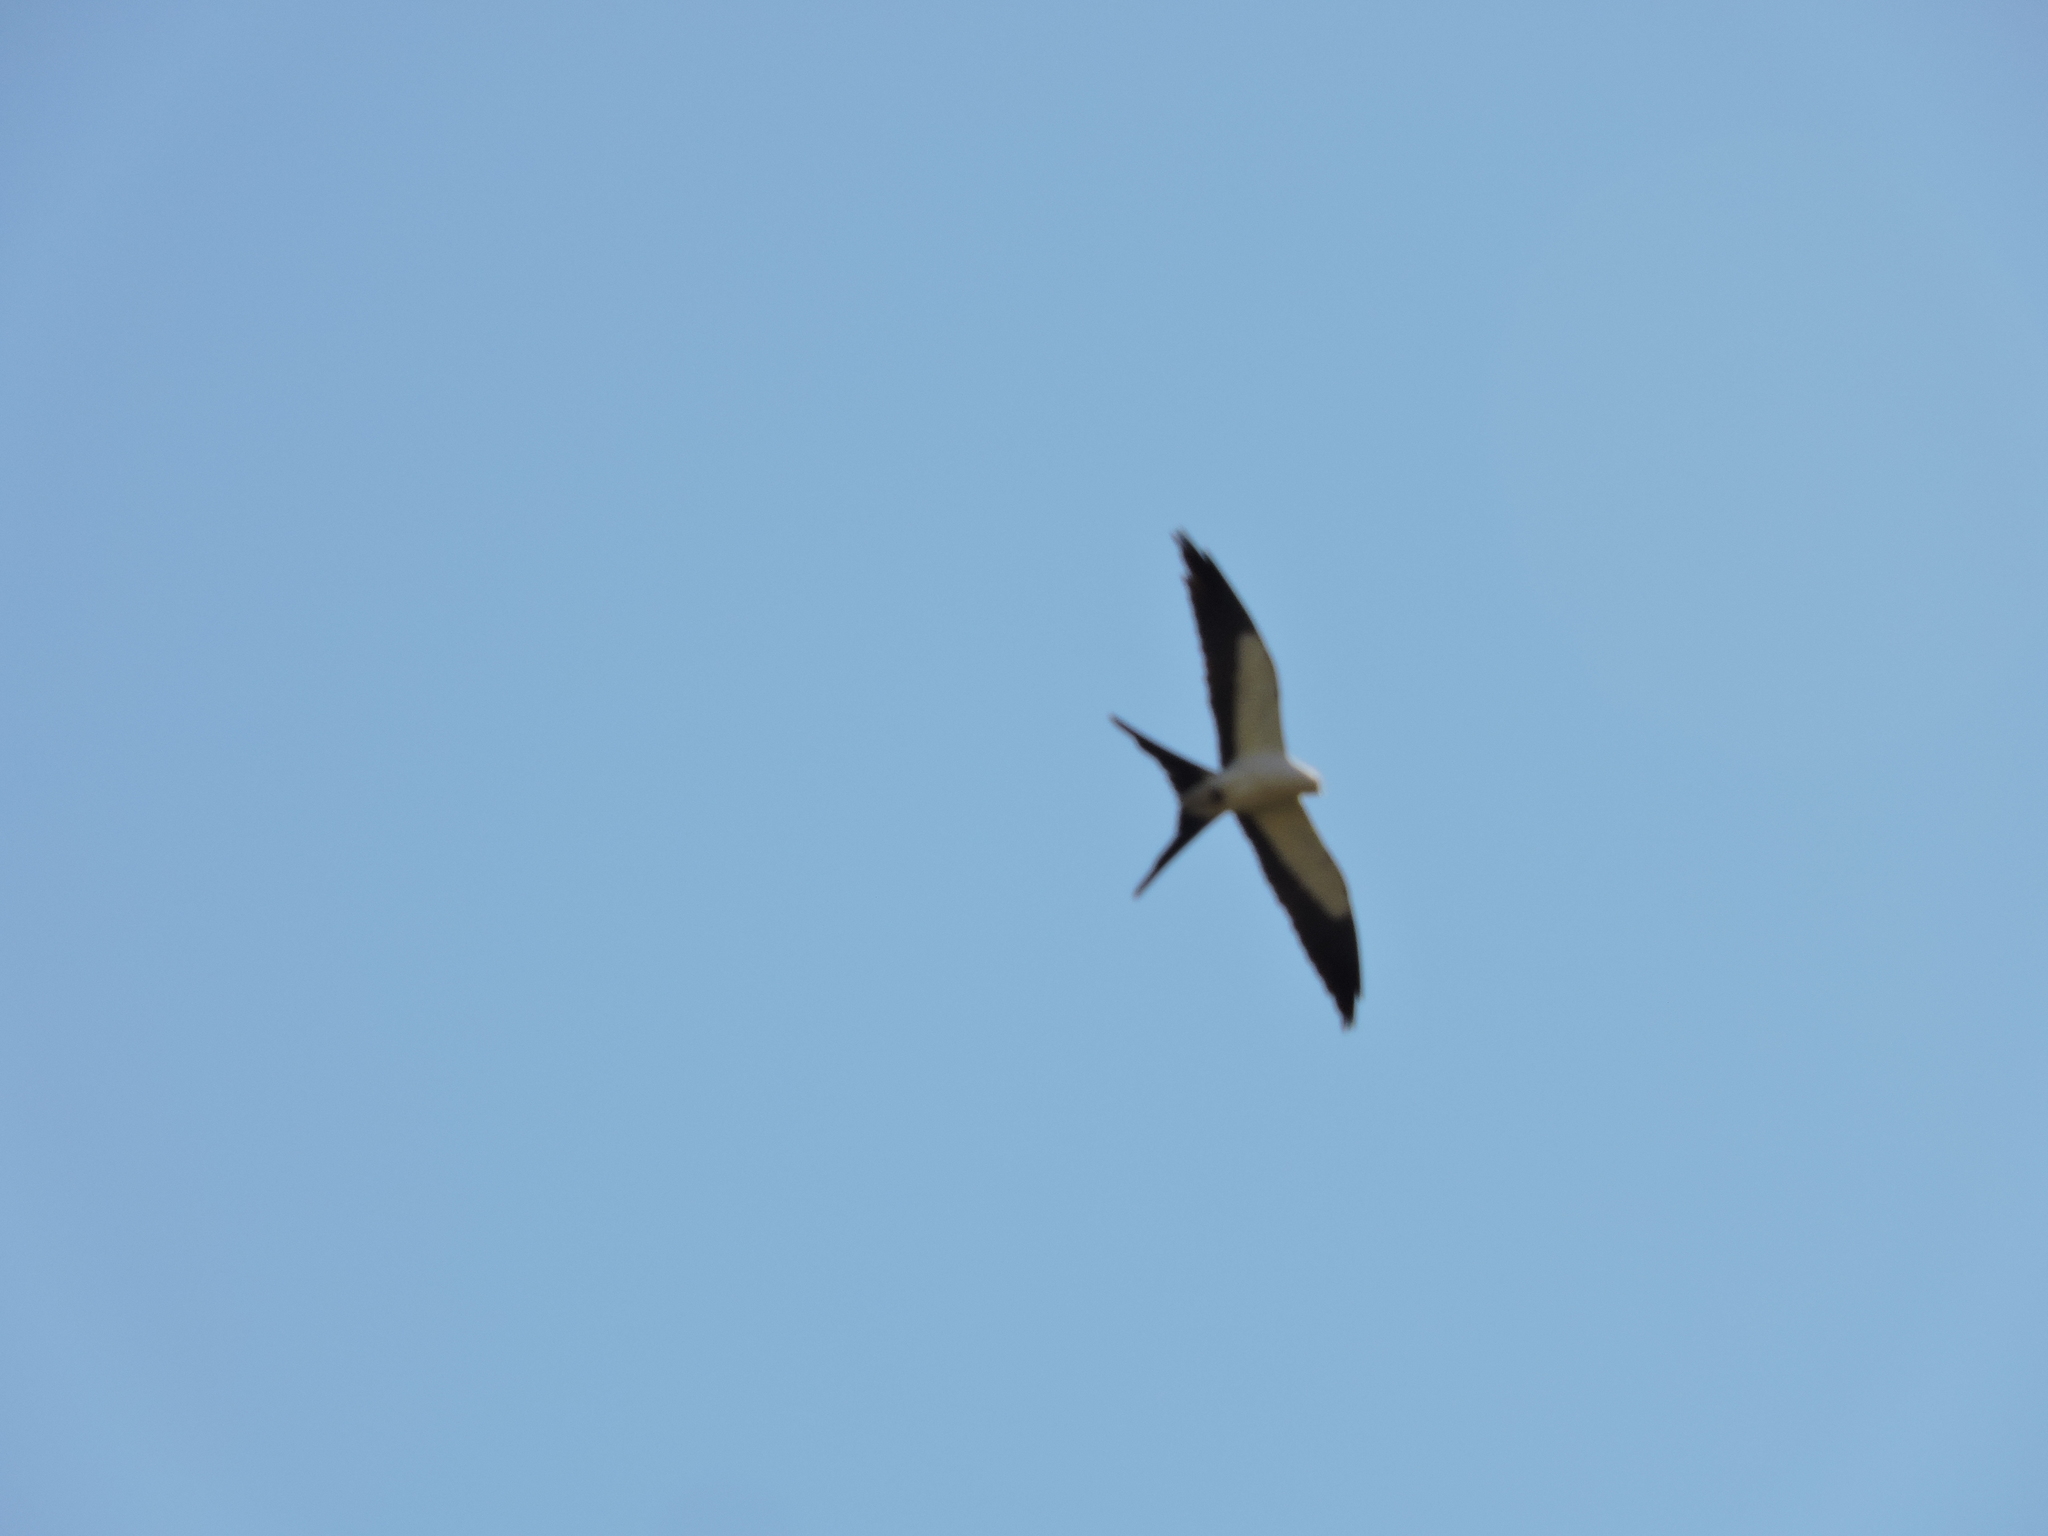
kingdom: Animalia
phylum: Chordata
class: Aves
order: Accipitriformes
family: Accipitridae
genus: Elanoides
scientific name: Elanoides forficatus
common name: Swallow-tailed kite
